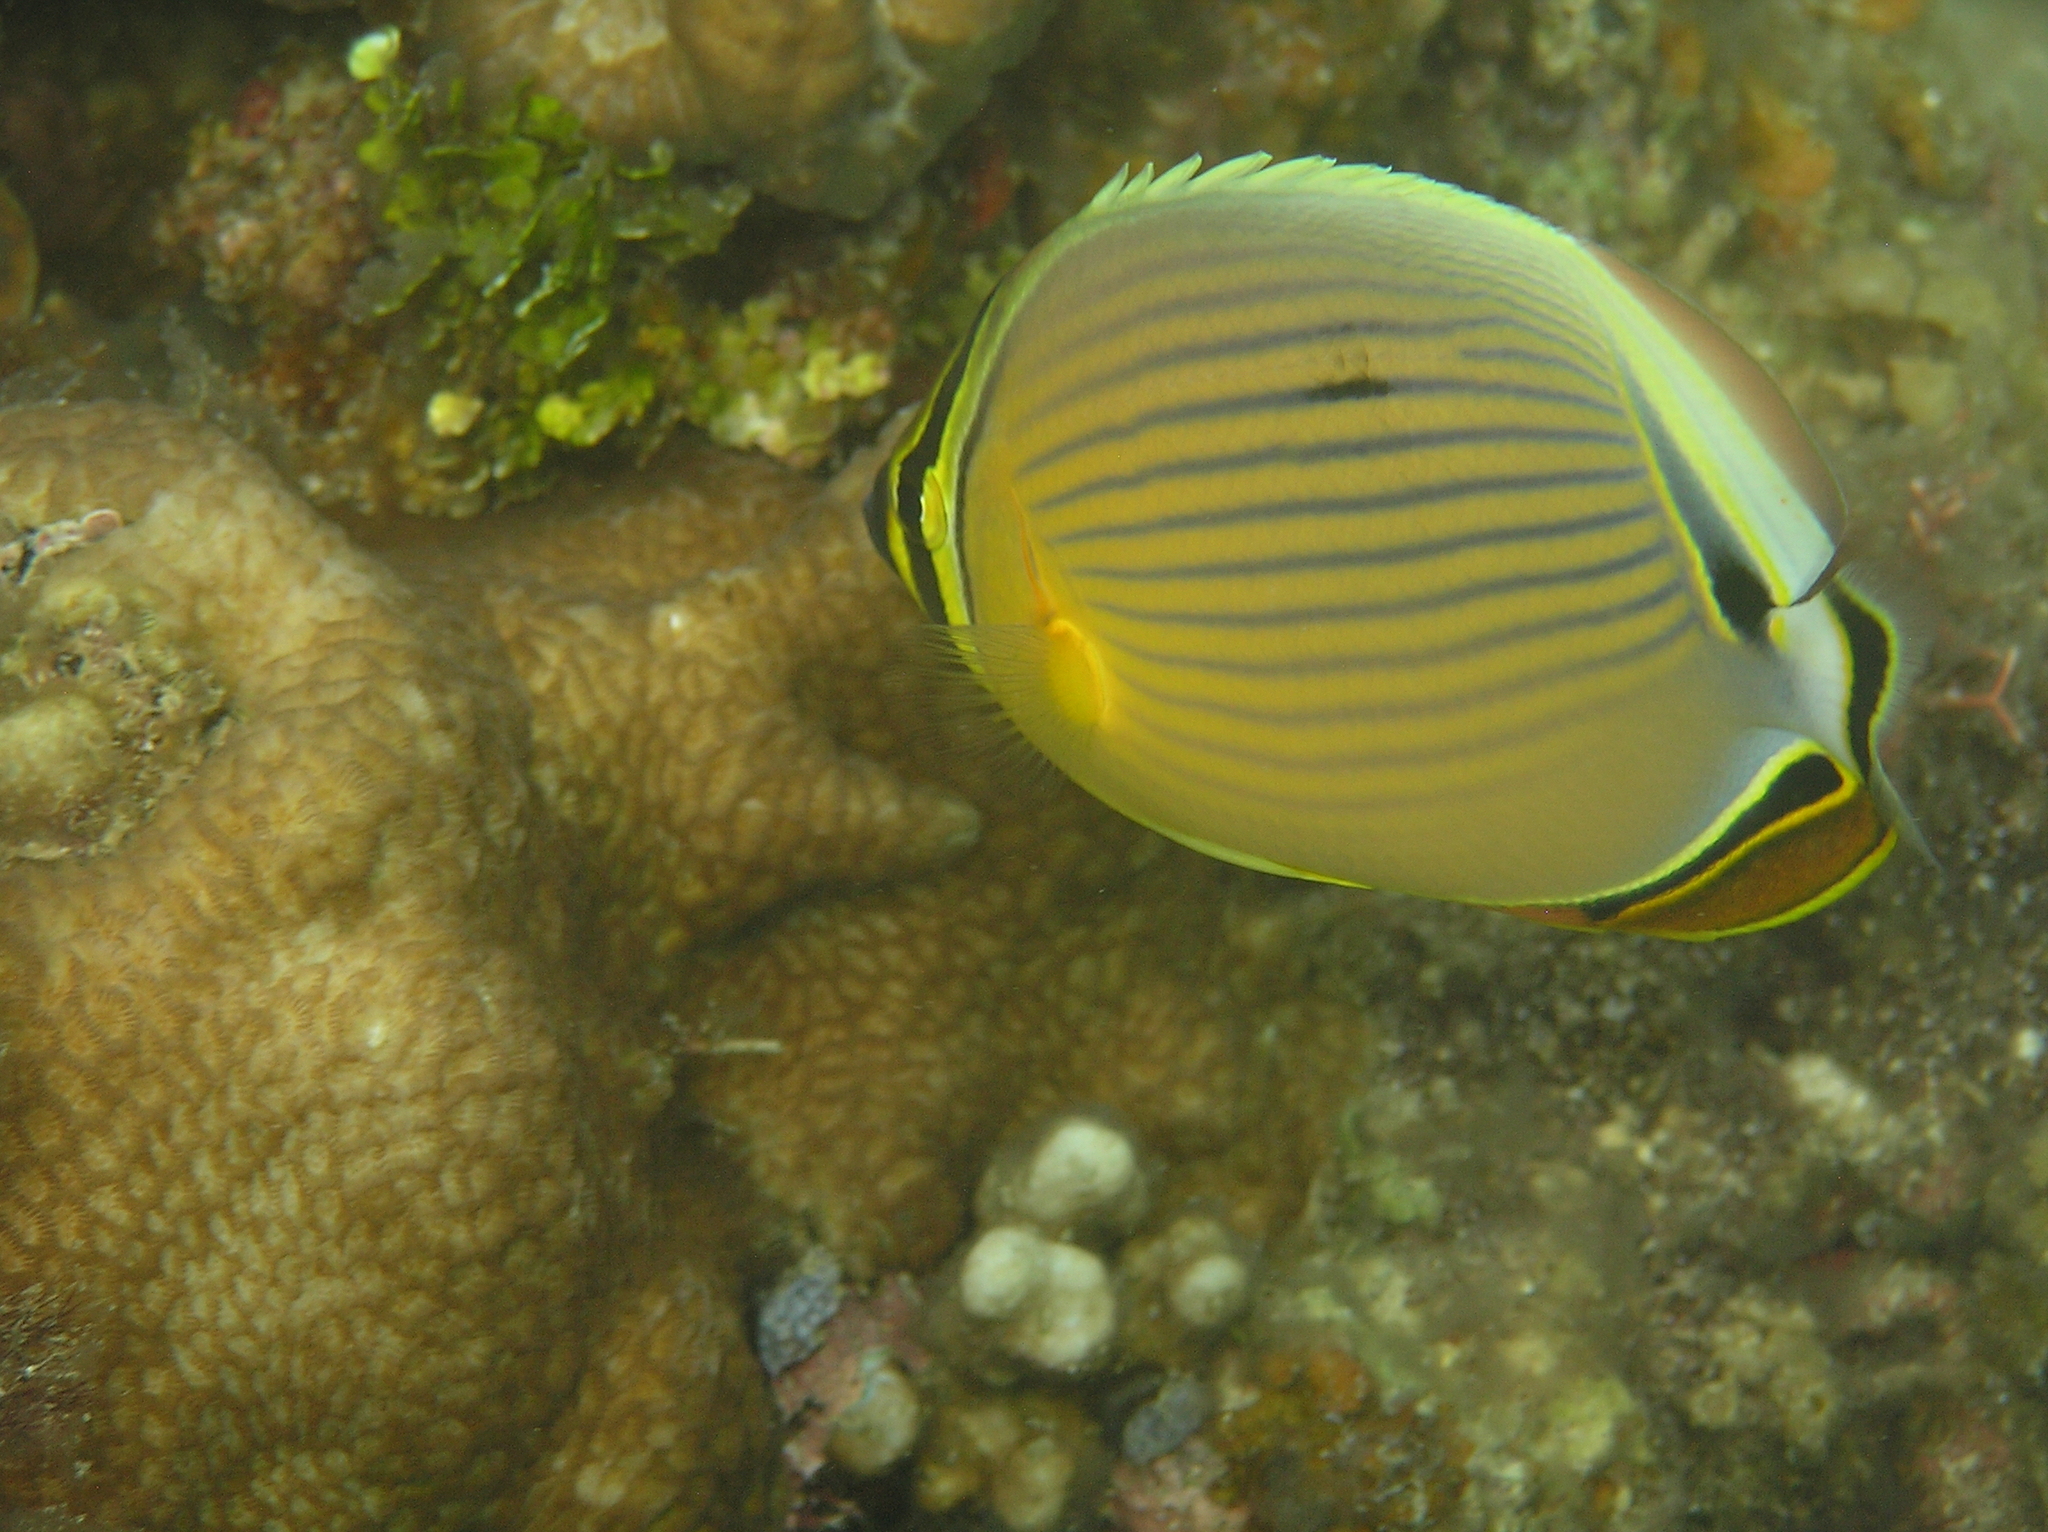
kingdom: Animalia
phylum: Chordata
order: Perciformes
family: Chaetodontidae
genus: Chaetodon
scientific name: Chaetodon lunulatus
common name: Redfin butterflyfish
